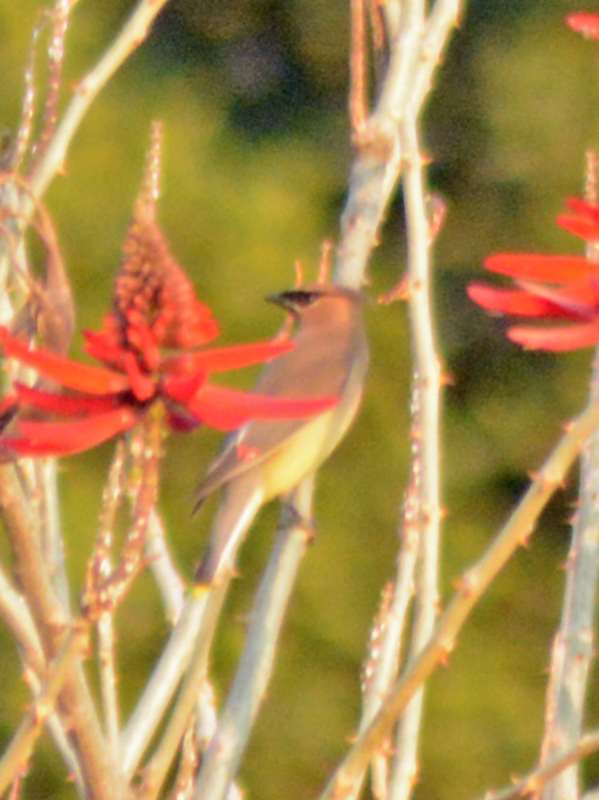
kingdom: Animalia
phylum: Chordata
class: Aves
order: Passeriformes
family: Bombycillidae
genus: Bombycilla
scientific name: Bombycilla cedrorum
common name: Cedar waxwing
